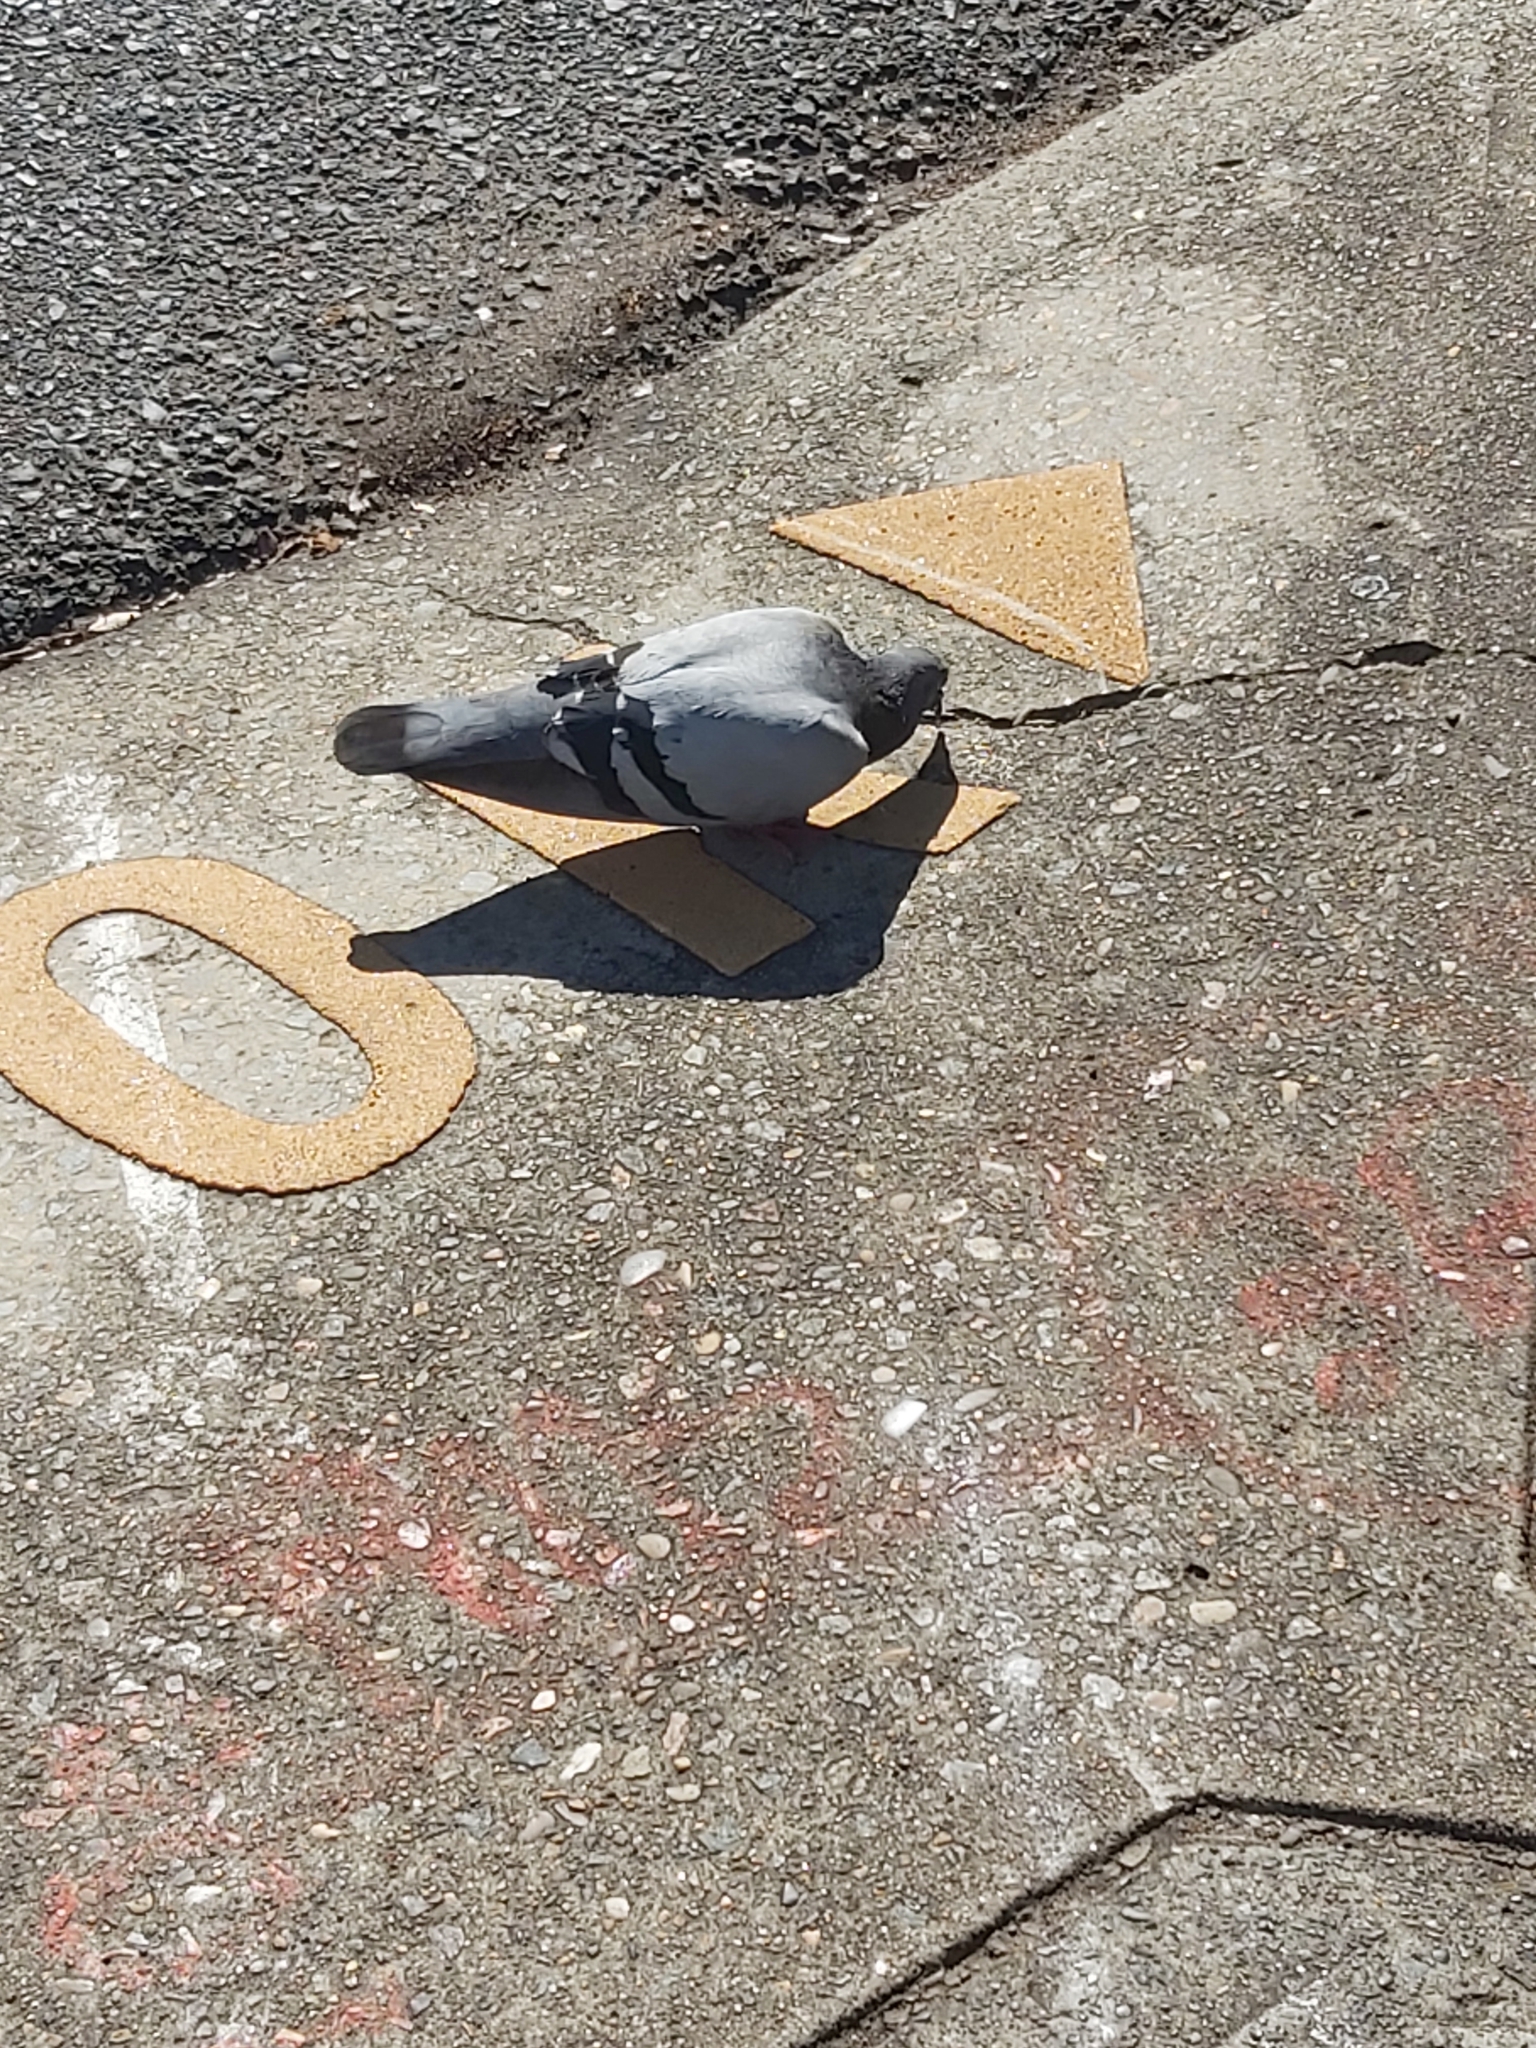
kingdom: Animalia
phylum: Chordata
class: Aves
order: Columbiformes
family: Columbidae
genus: Columba
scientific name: Columba livia
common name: Rock pigeon
